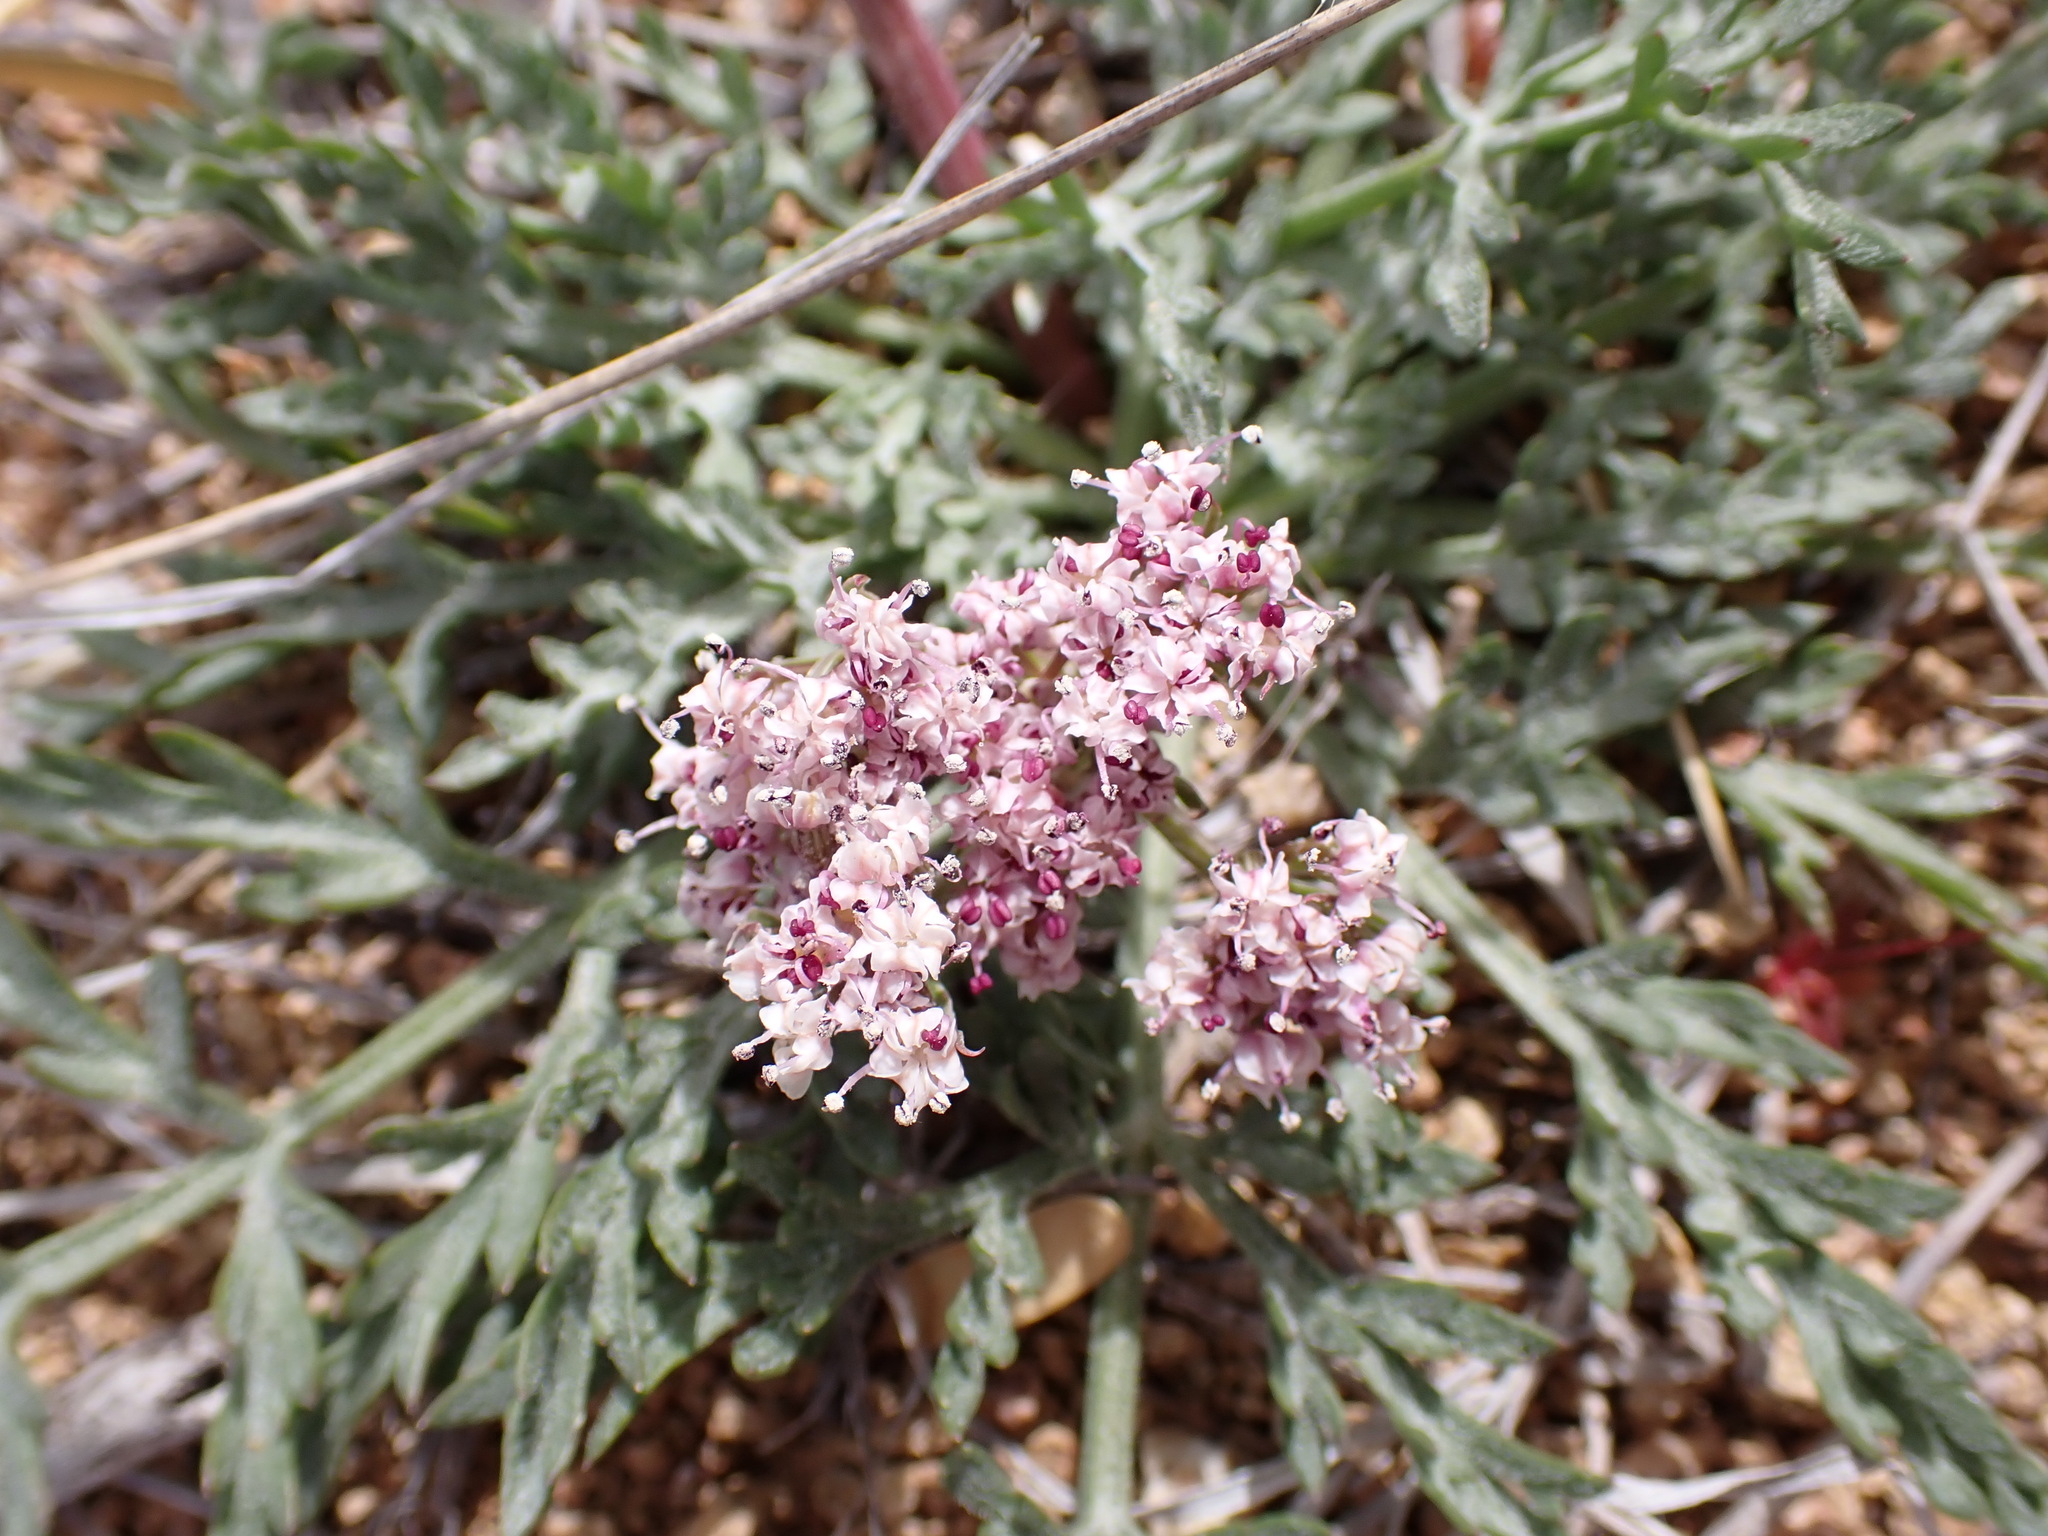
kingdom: Plantae
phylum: Tracheophyta
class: Magnoliopsida
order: Apiales
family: Apiaceae
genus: Lomatium
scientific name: Lomatium nevadense
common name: Nevada lomatium
